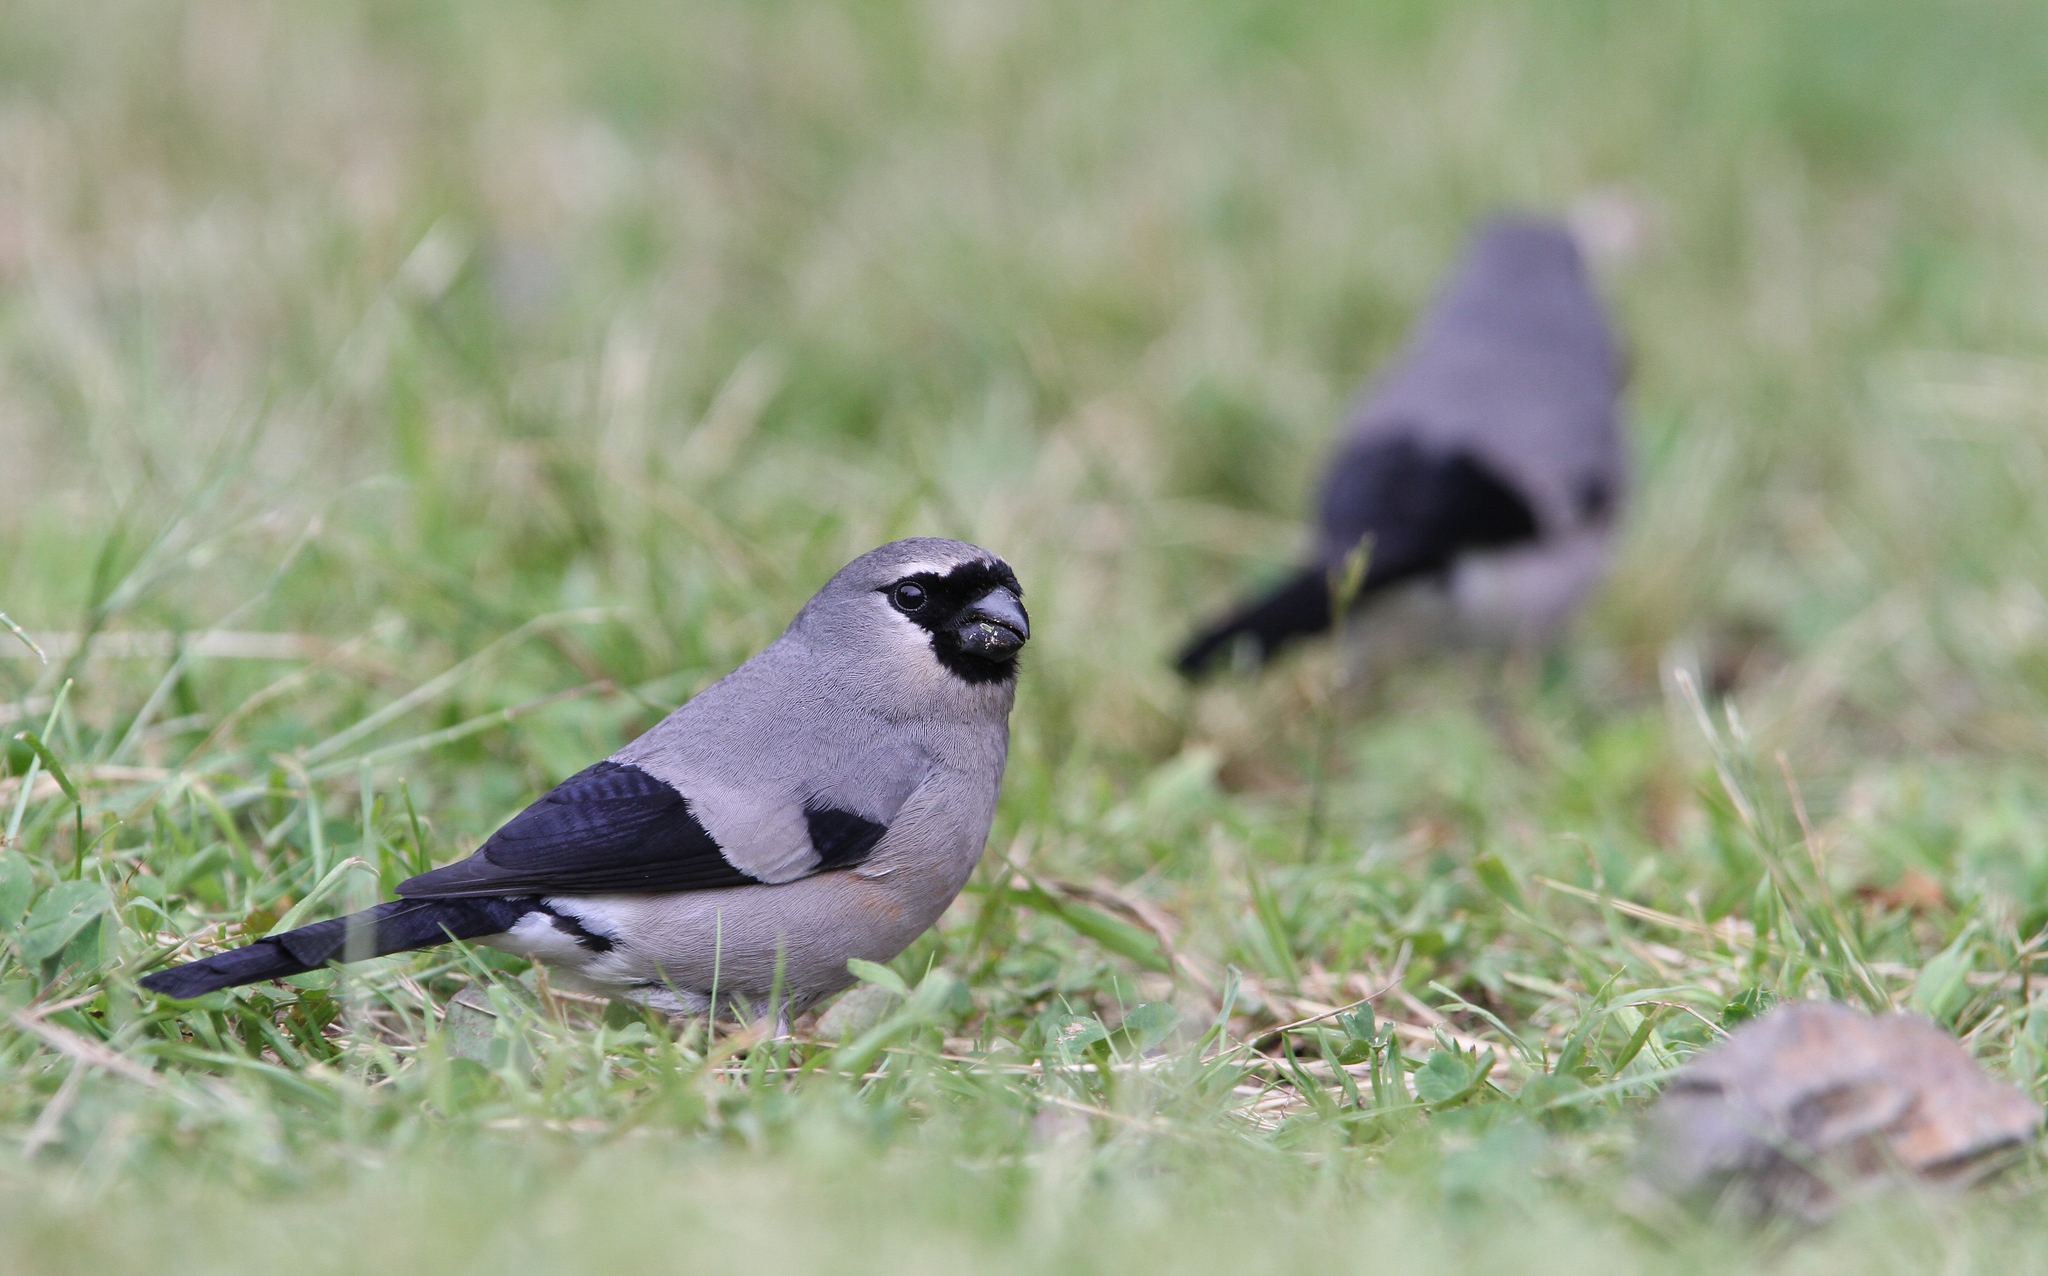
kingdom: Animalia
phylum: Chordata
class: Aves
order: Passeriformes
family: Fringillidae
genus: Pyrrhula
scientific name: Pyrrhula owstoni
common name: Taiwan bullfinch
